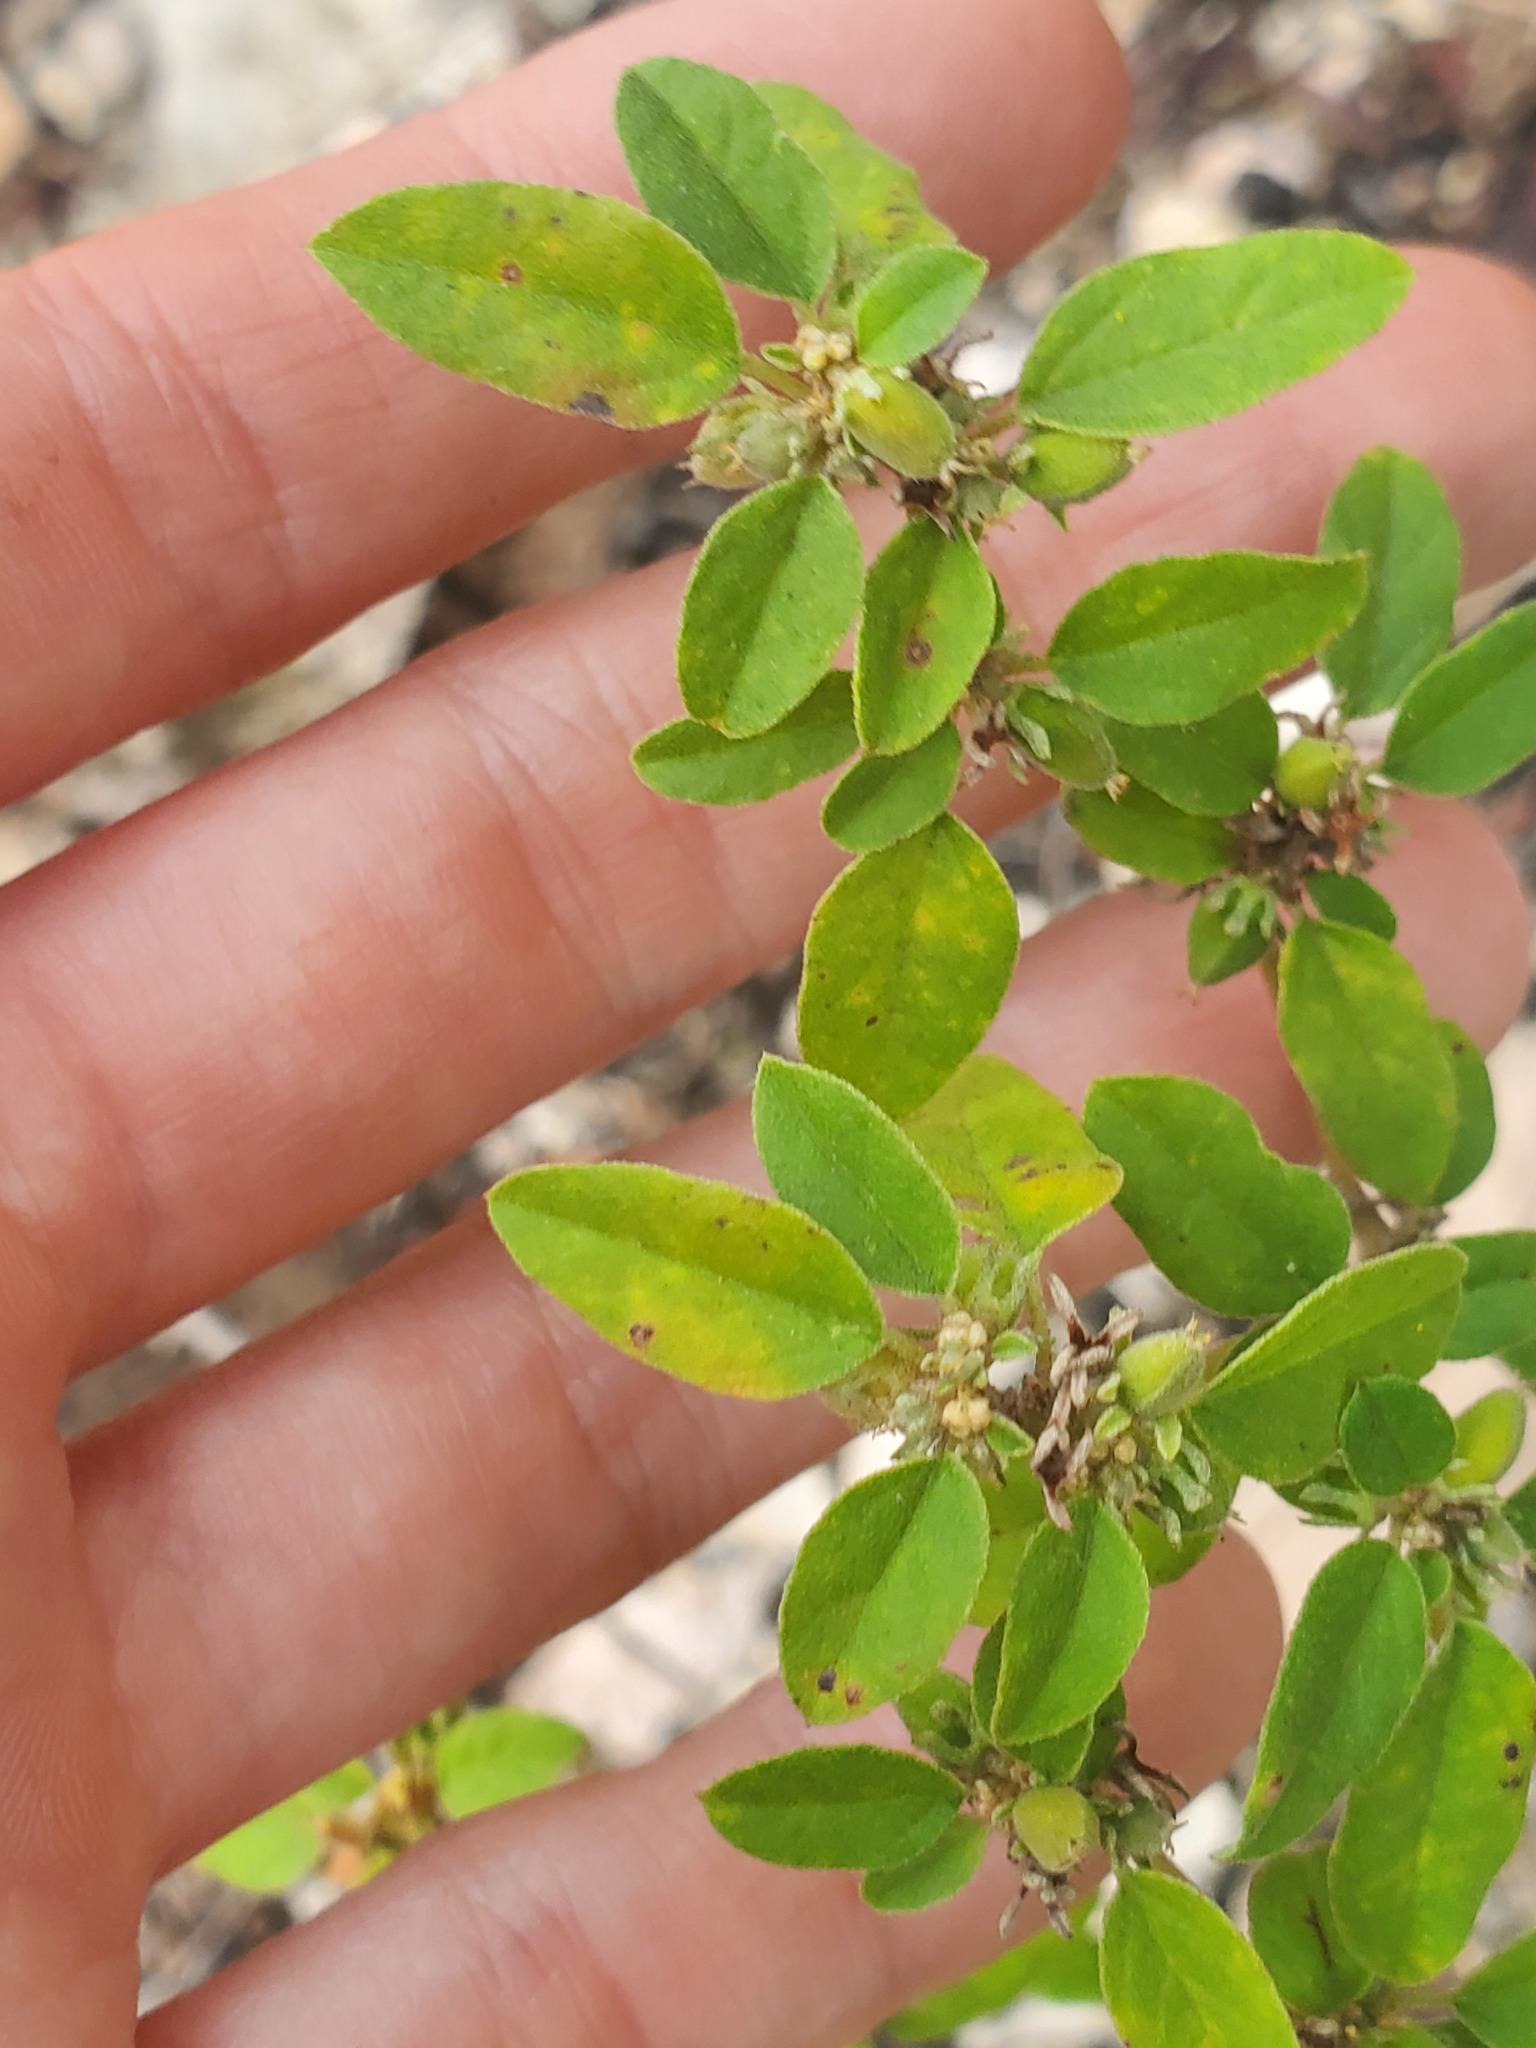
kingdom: Plantae
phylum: Tracheophyta
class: Magnoliopsida
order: Malpighiales
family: Euphorbiaceae
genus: Croton
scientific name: Croton monanthogynus
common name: One-seed croton
